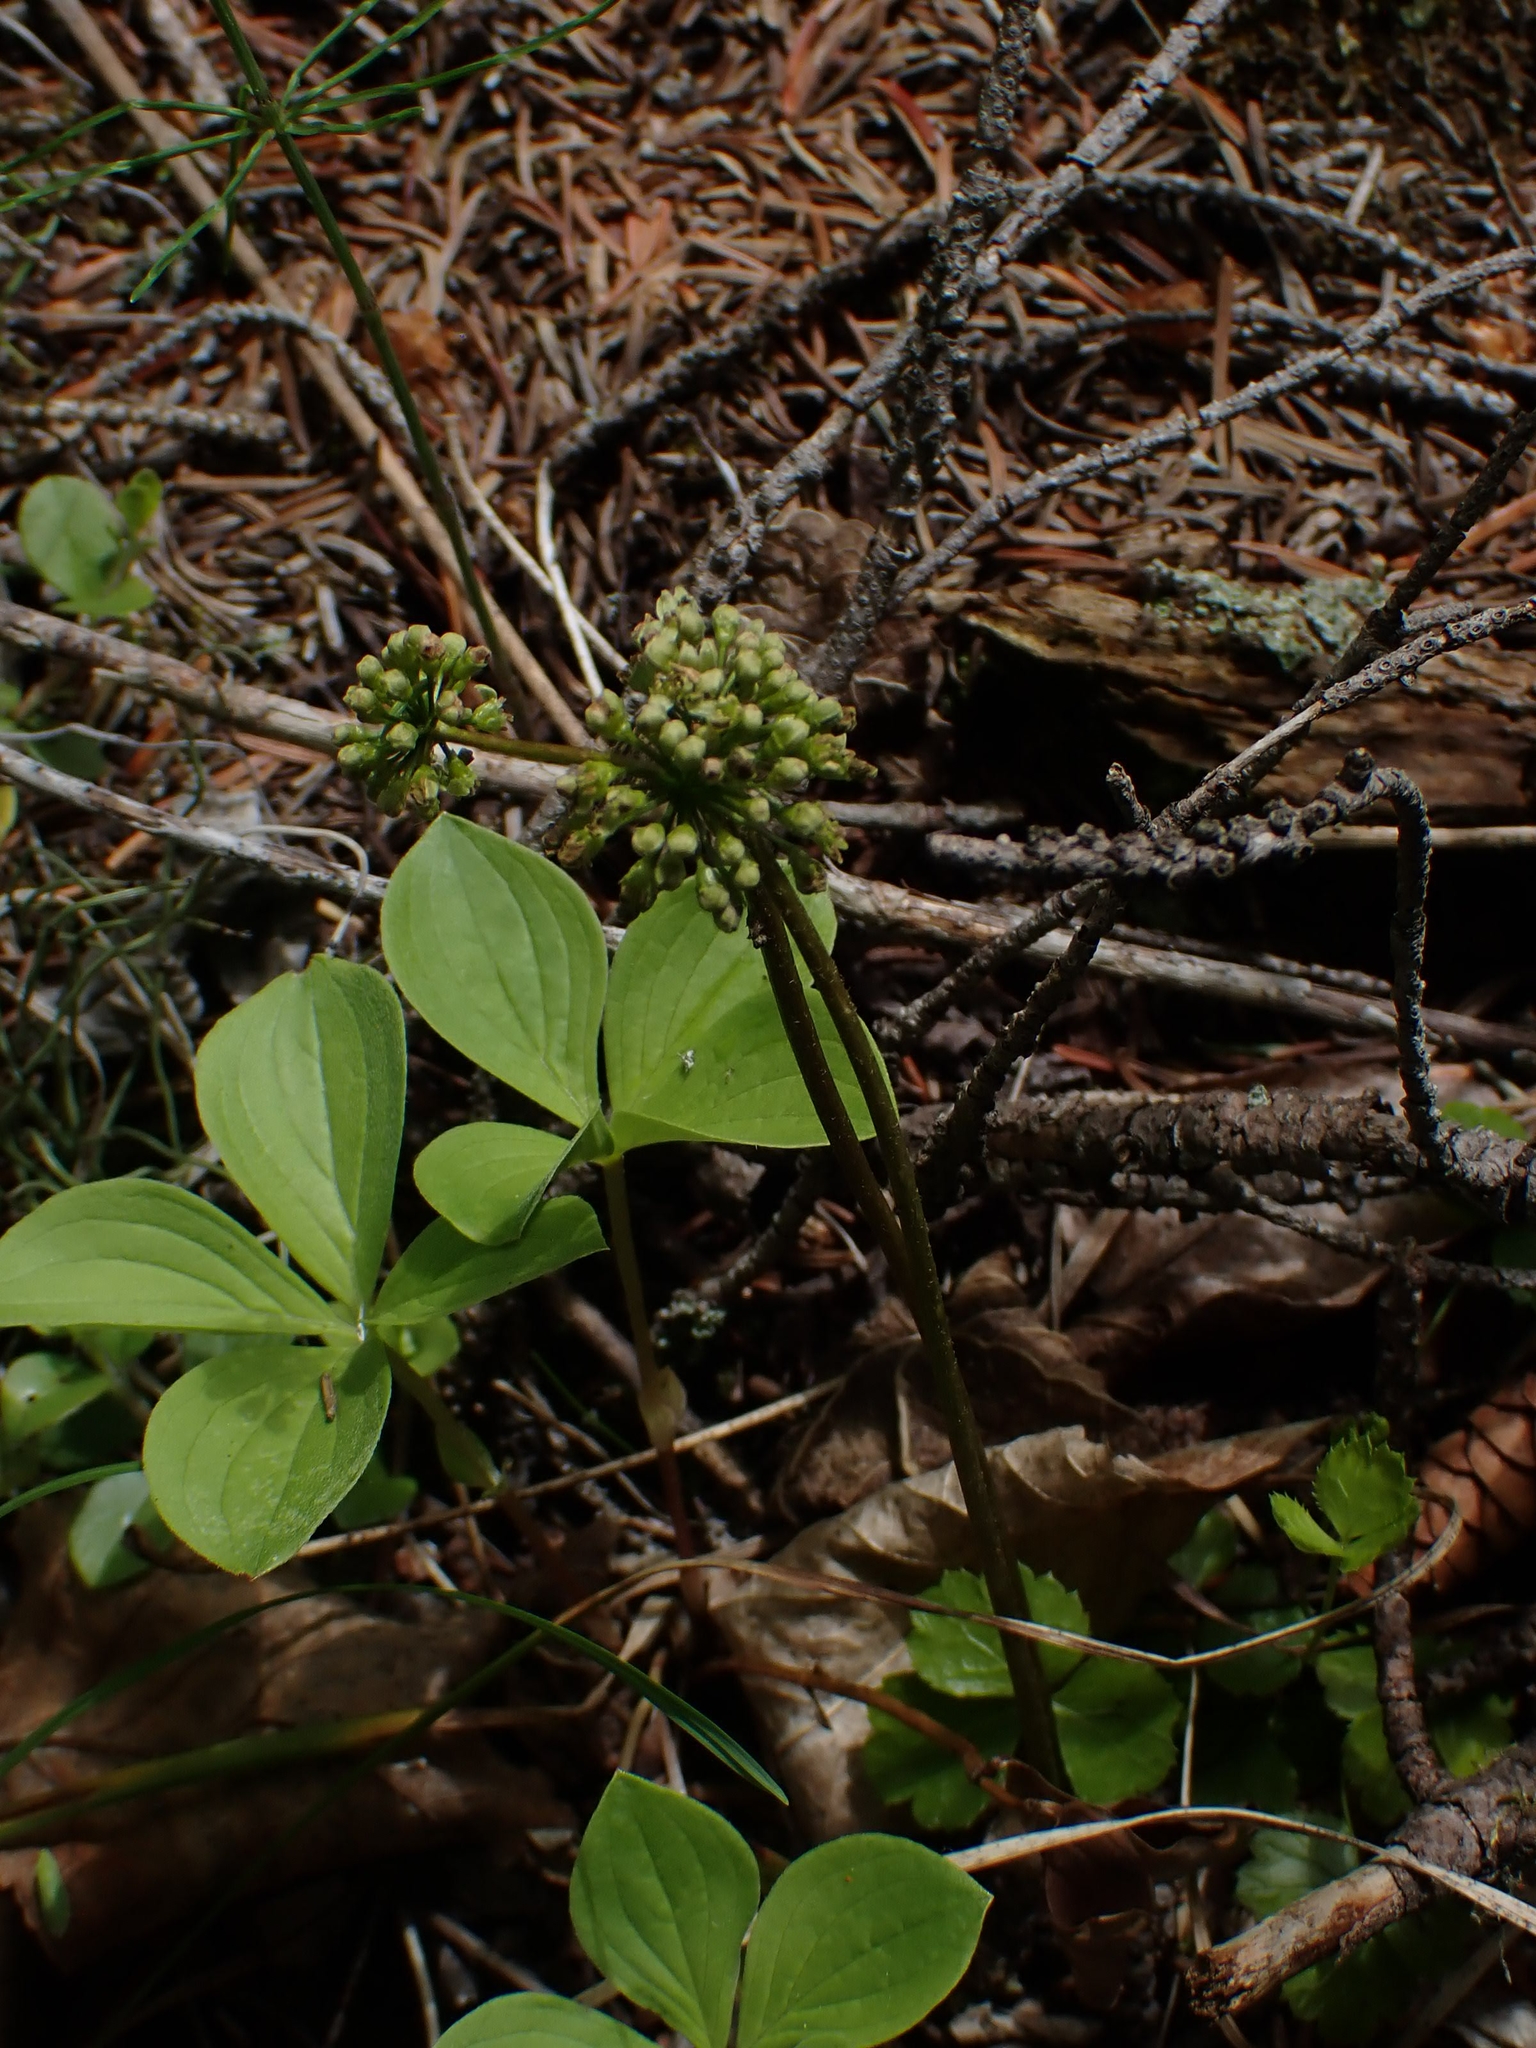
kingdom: Plantae
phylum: Tracheophyta
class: Magnoliopsida
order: Apiales
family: Araliaceae
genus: Aralia
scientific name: Aralia nudicaulis
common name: Wild sarsaparilla
